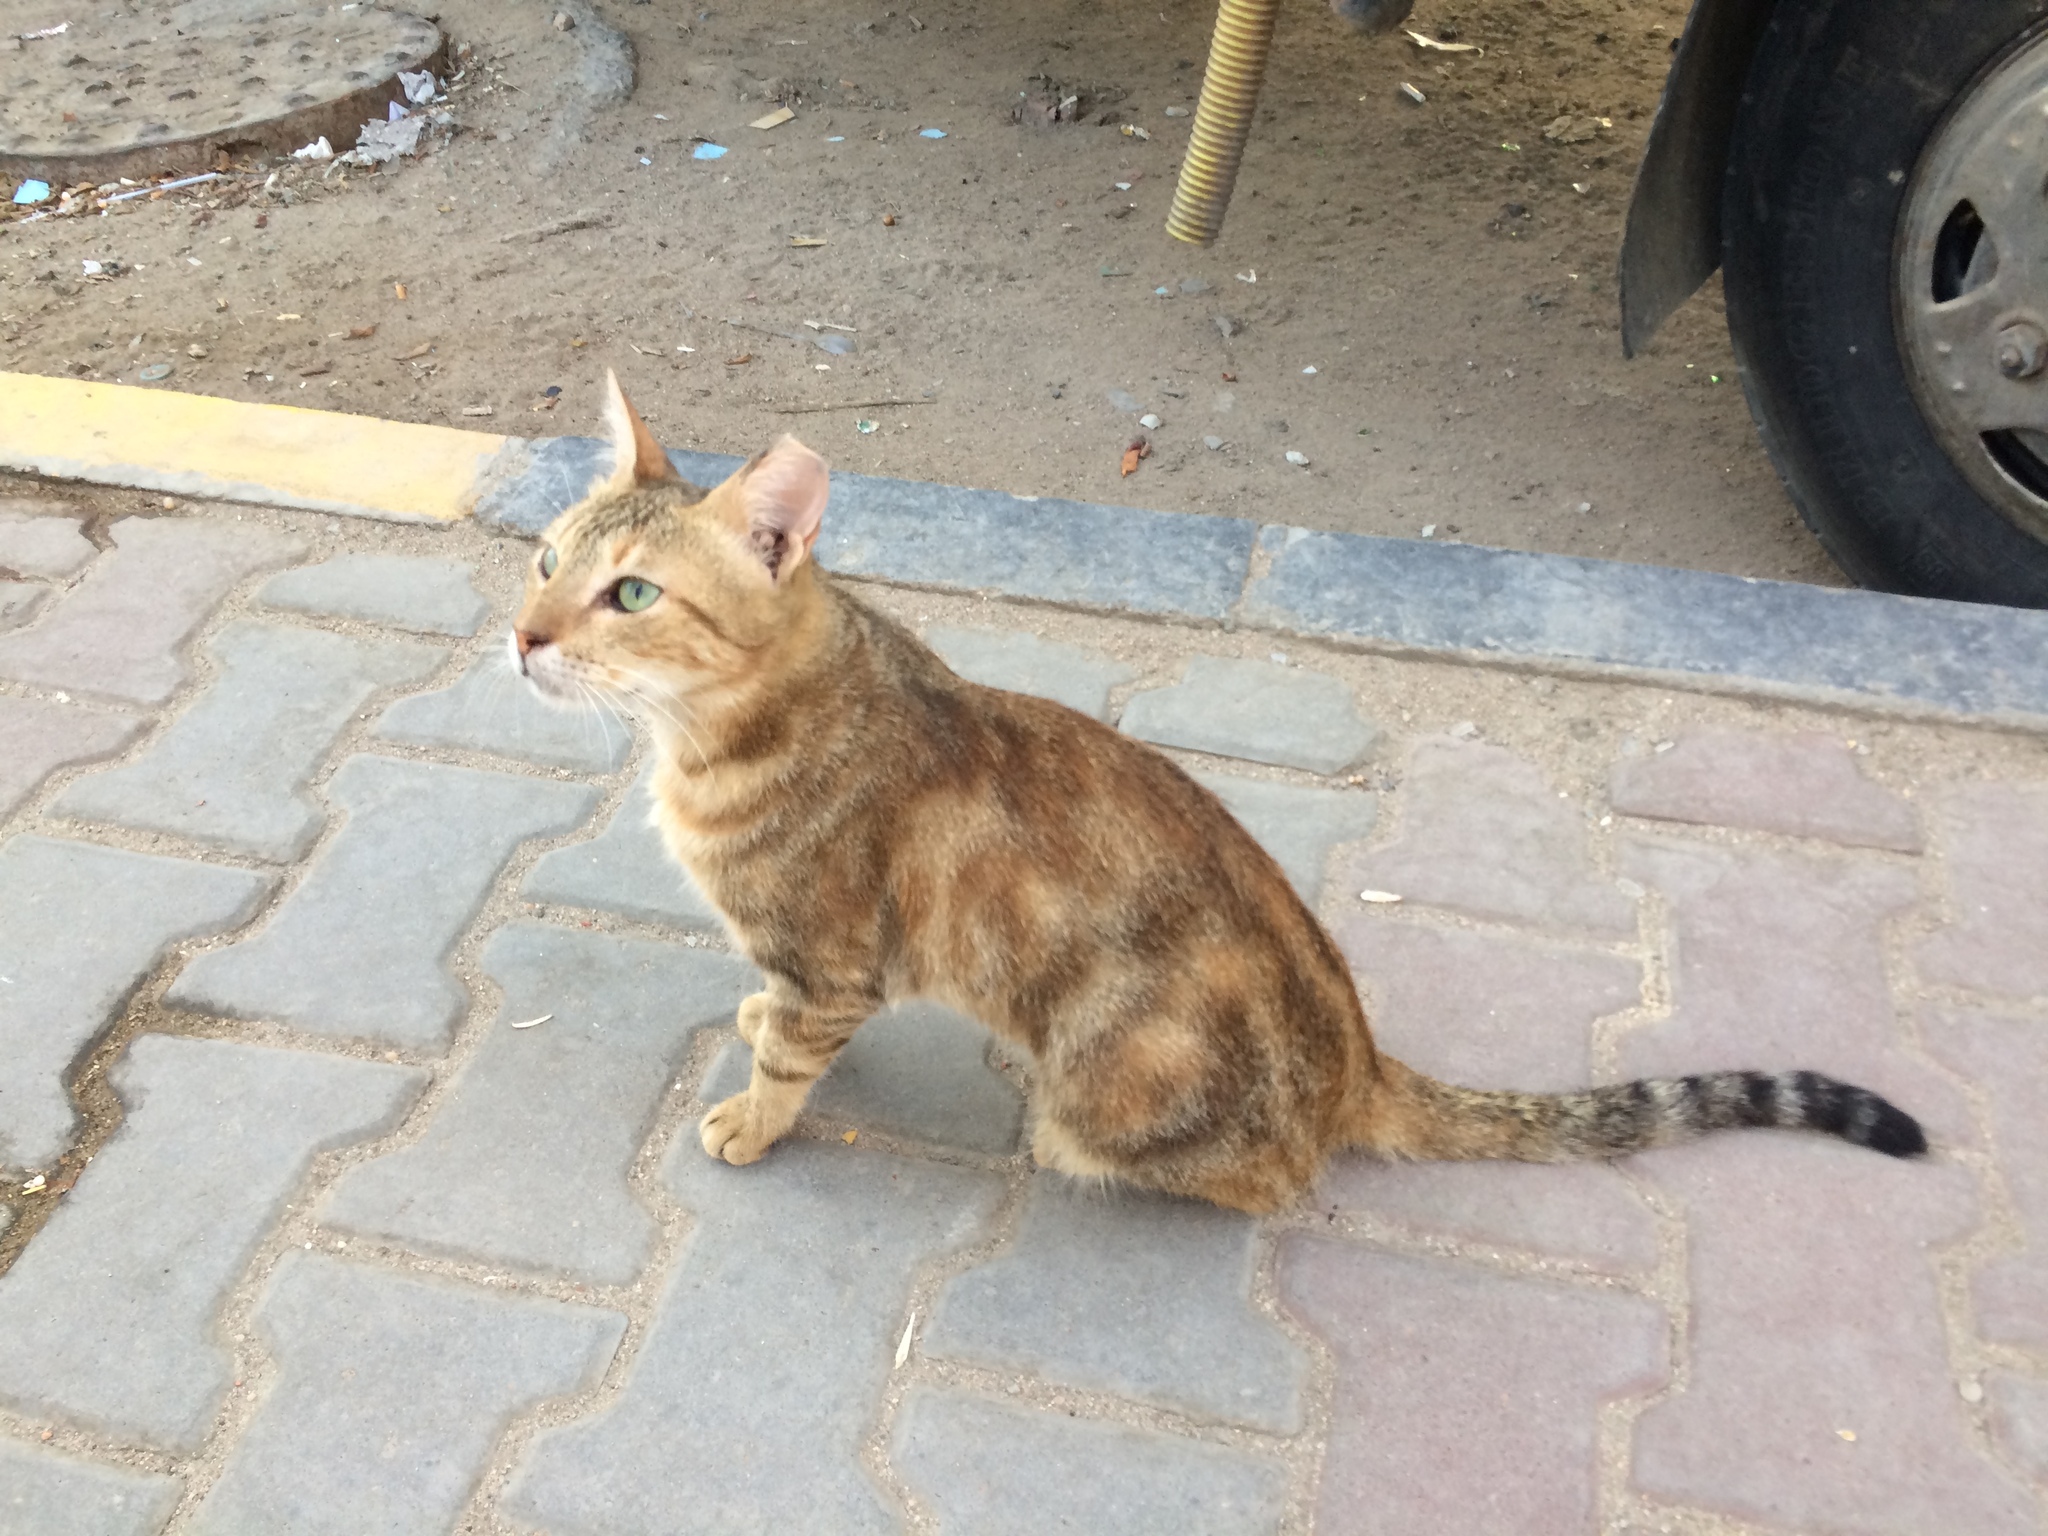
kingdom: Animalia
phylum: Chordata
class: Mammalia
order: Carnivora
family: Felidae
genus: Felis
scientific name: Felis catus
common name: Domestic cat
